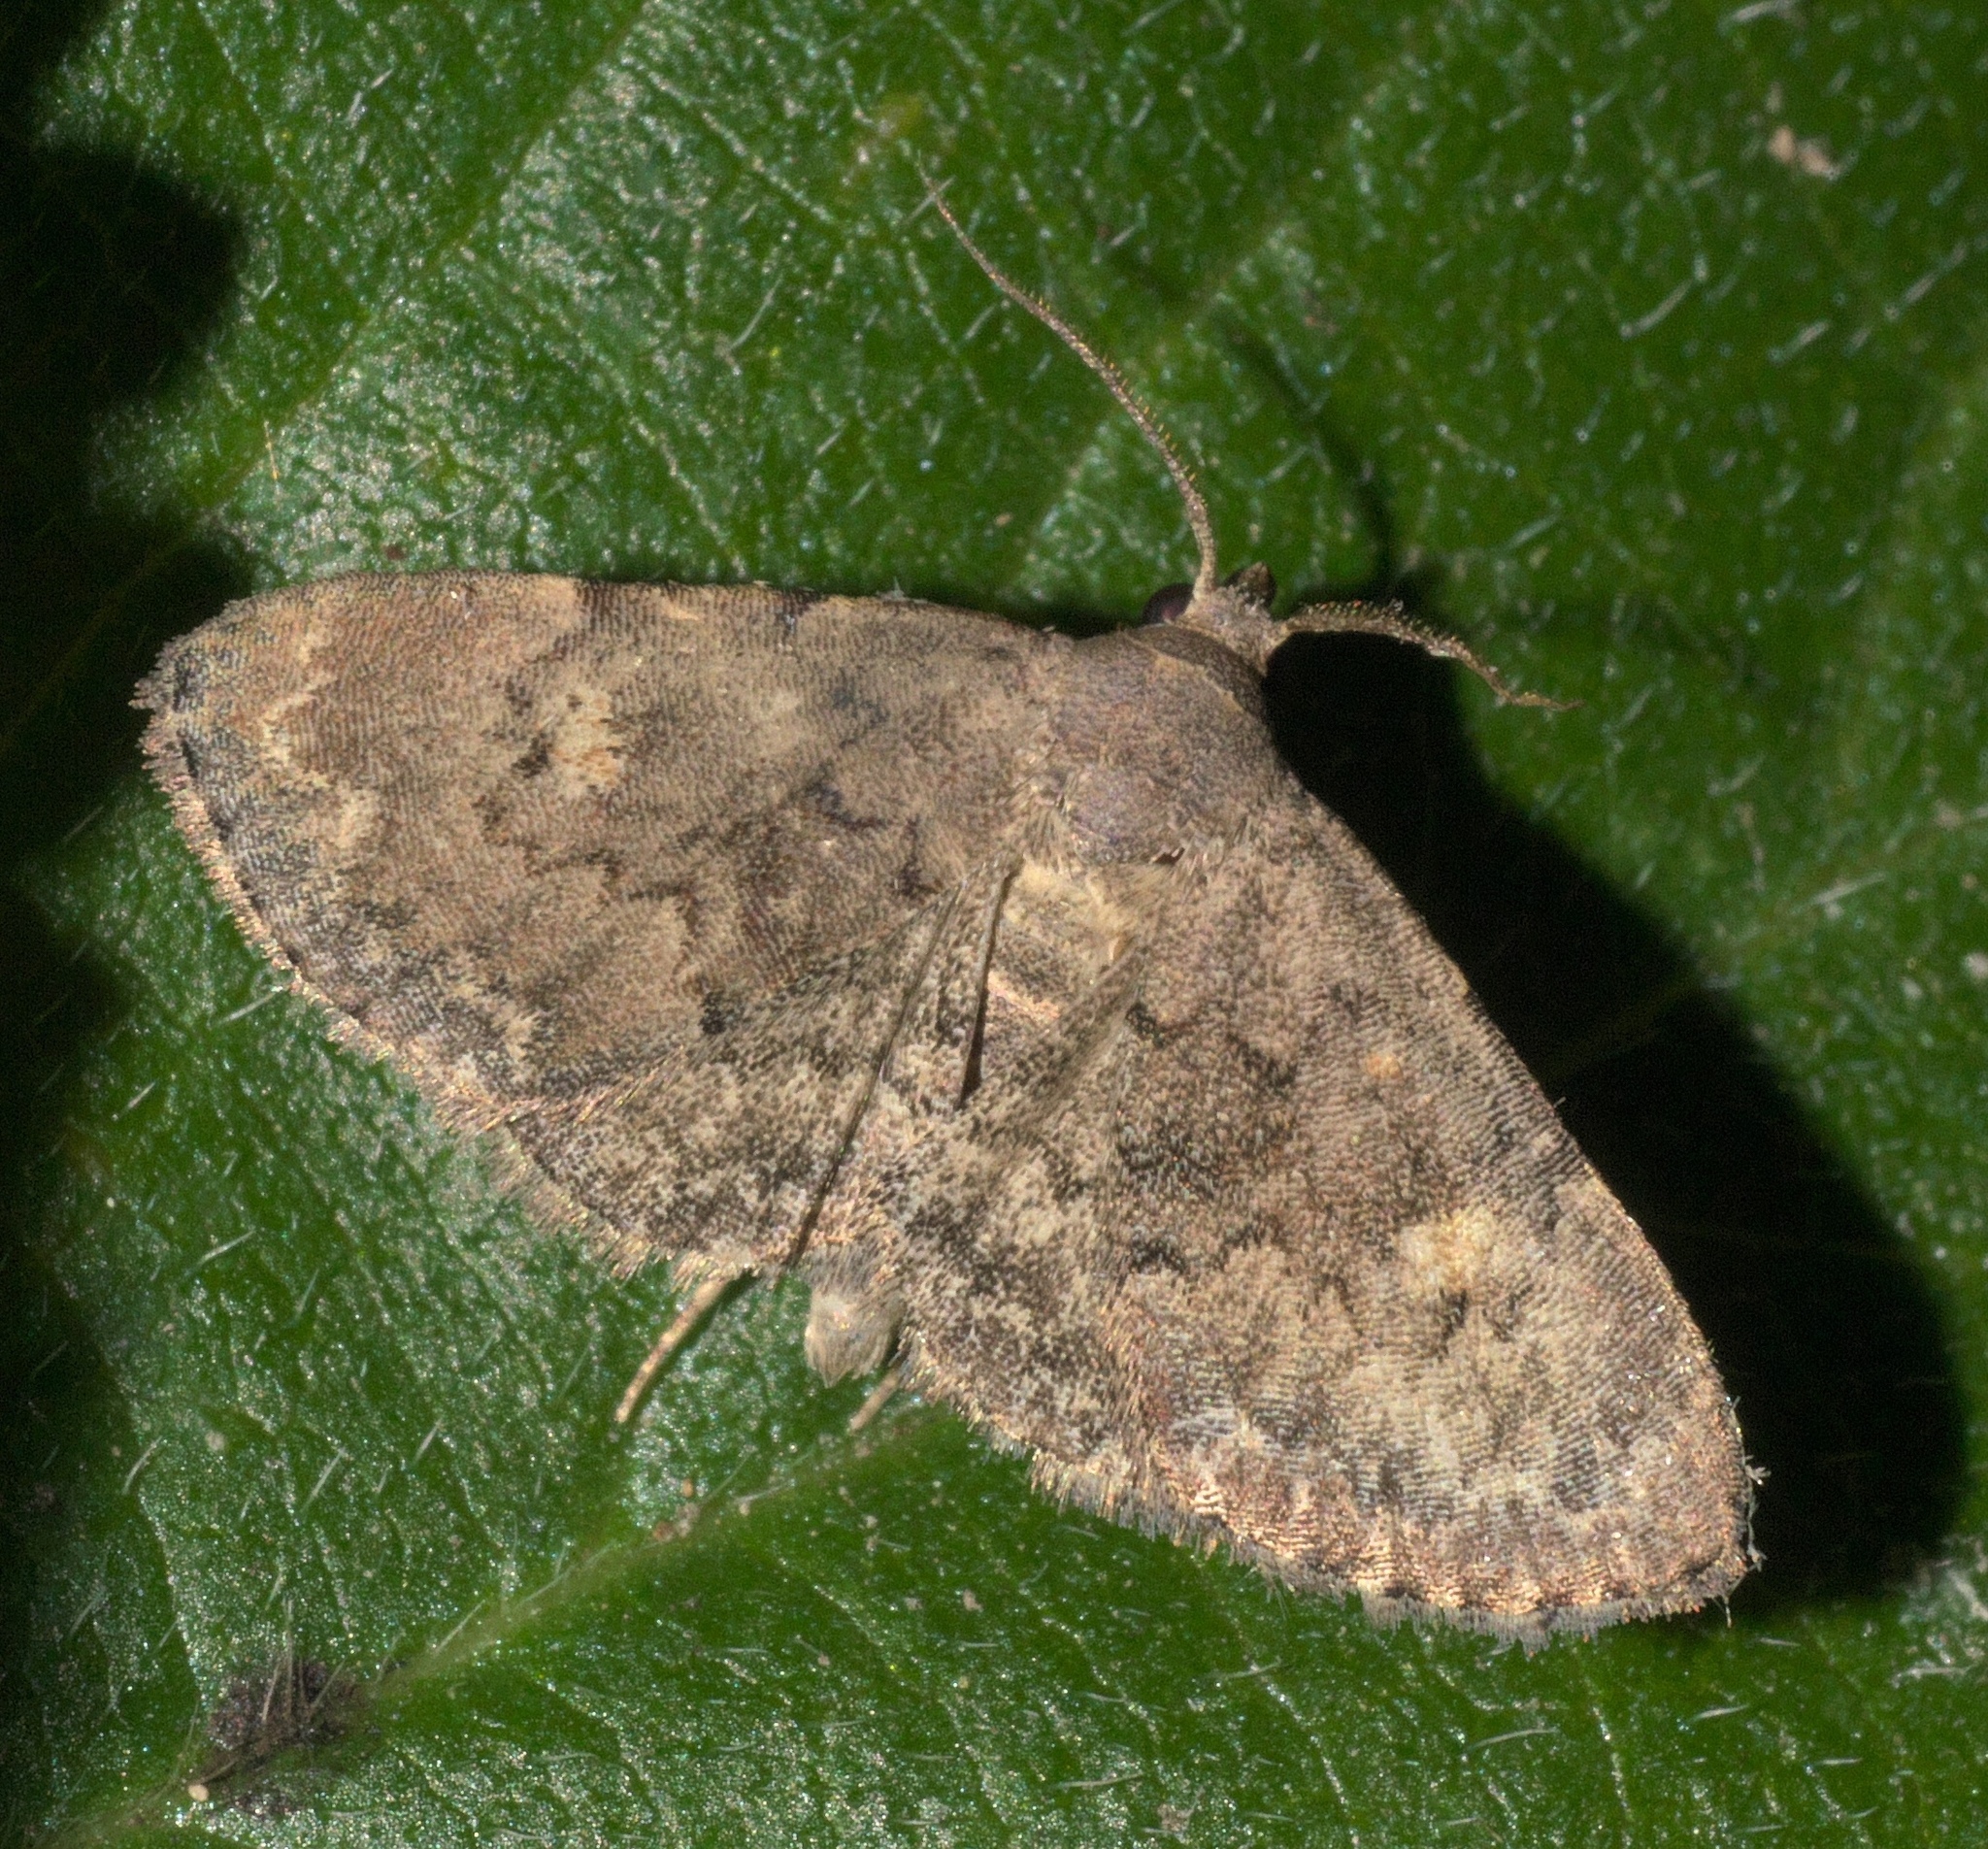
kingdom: Animalia
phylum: Arthropoda
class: Insecta
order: Lepidoptera
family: Erebidae
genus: Idia
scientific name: Idia aemula
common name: Common idia moth
